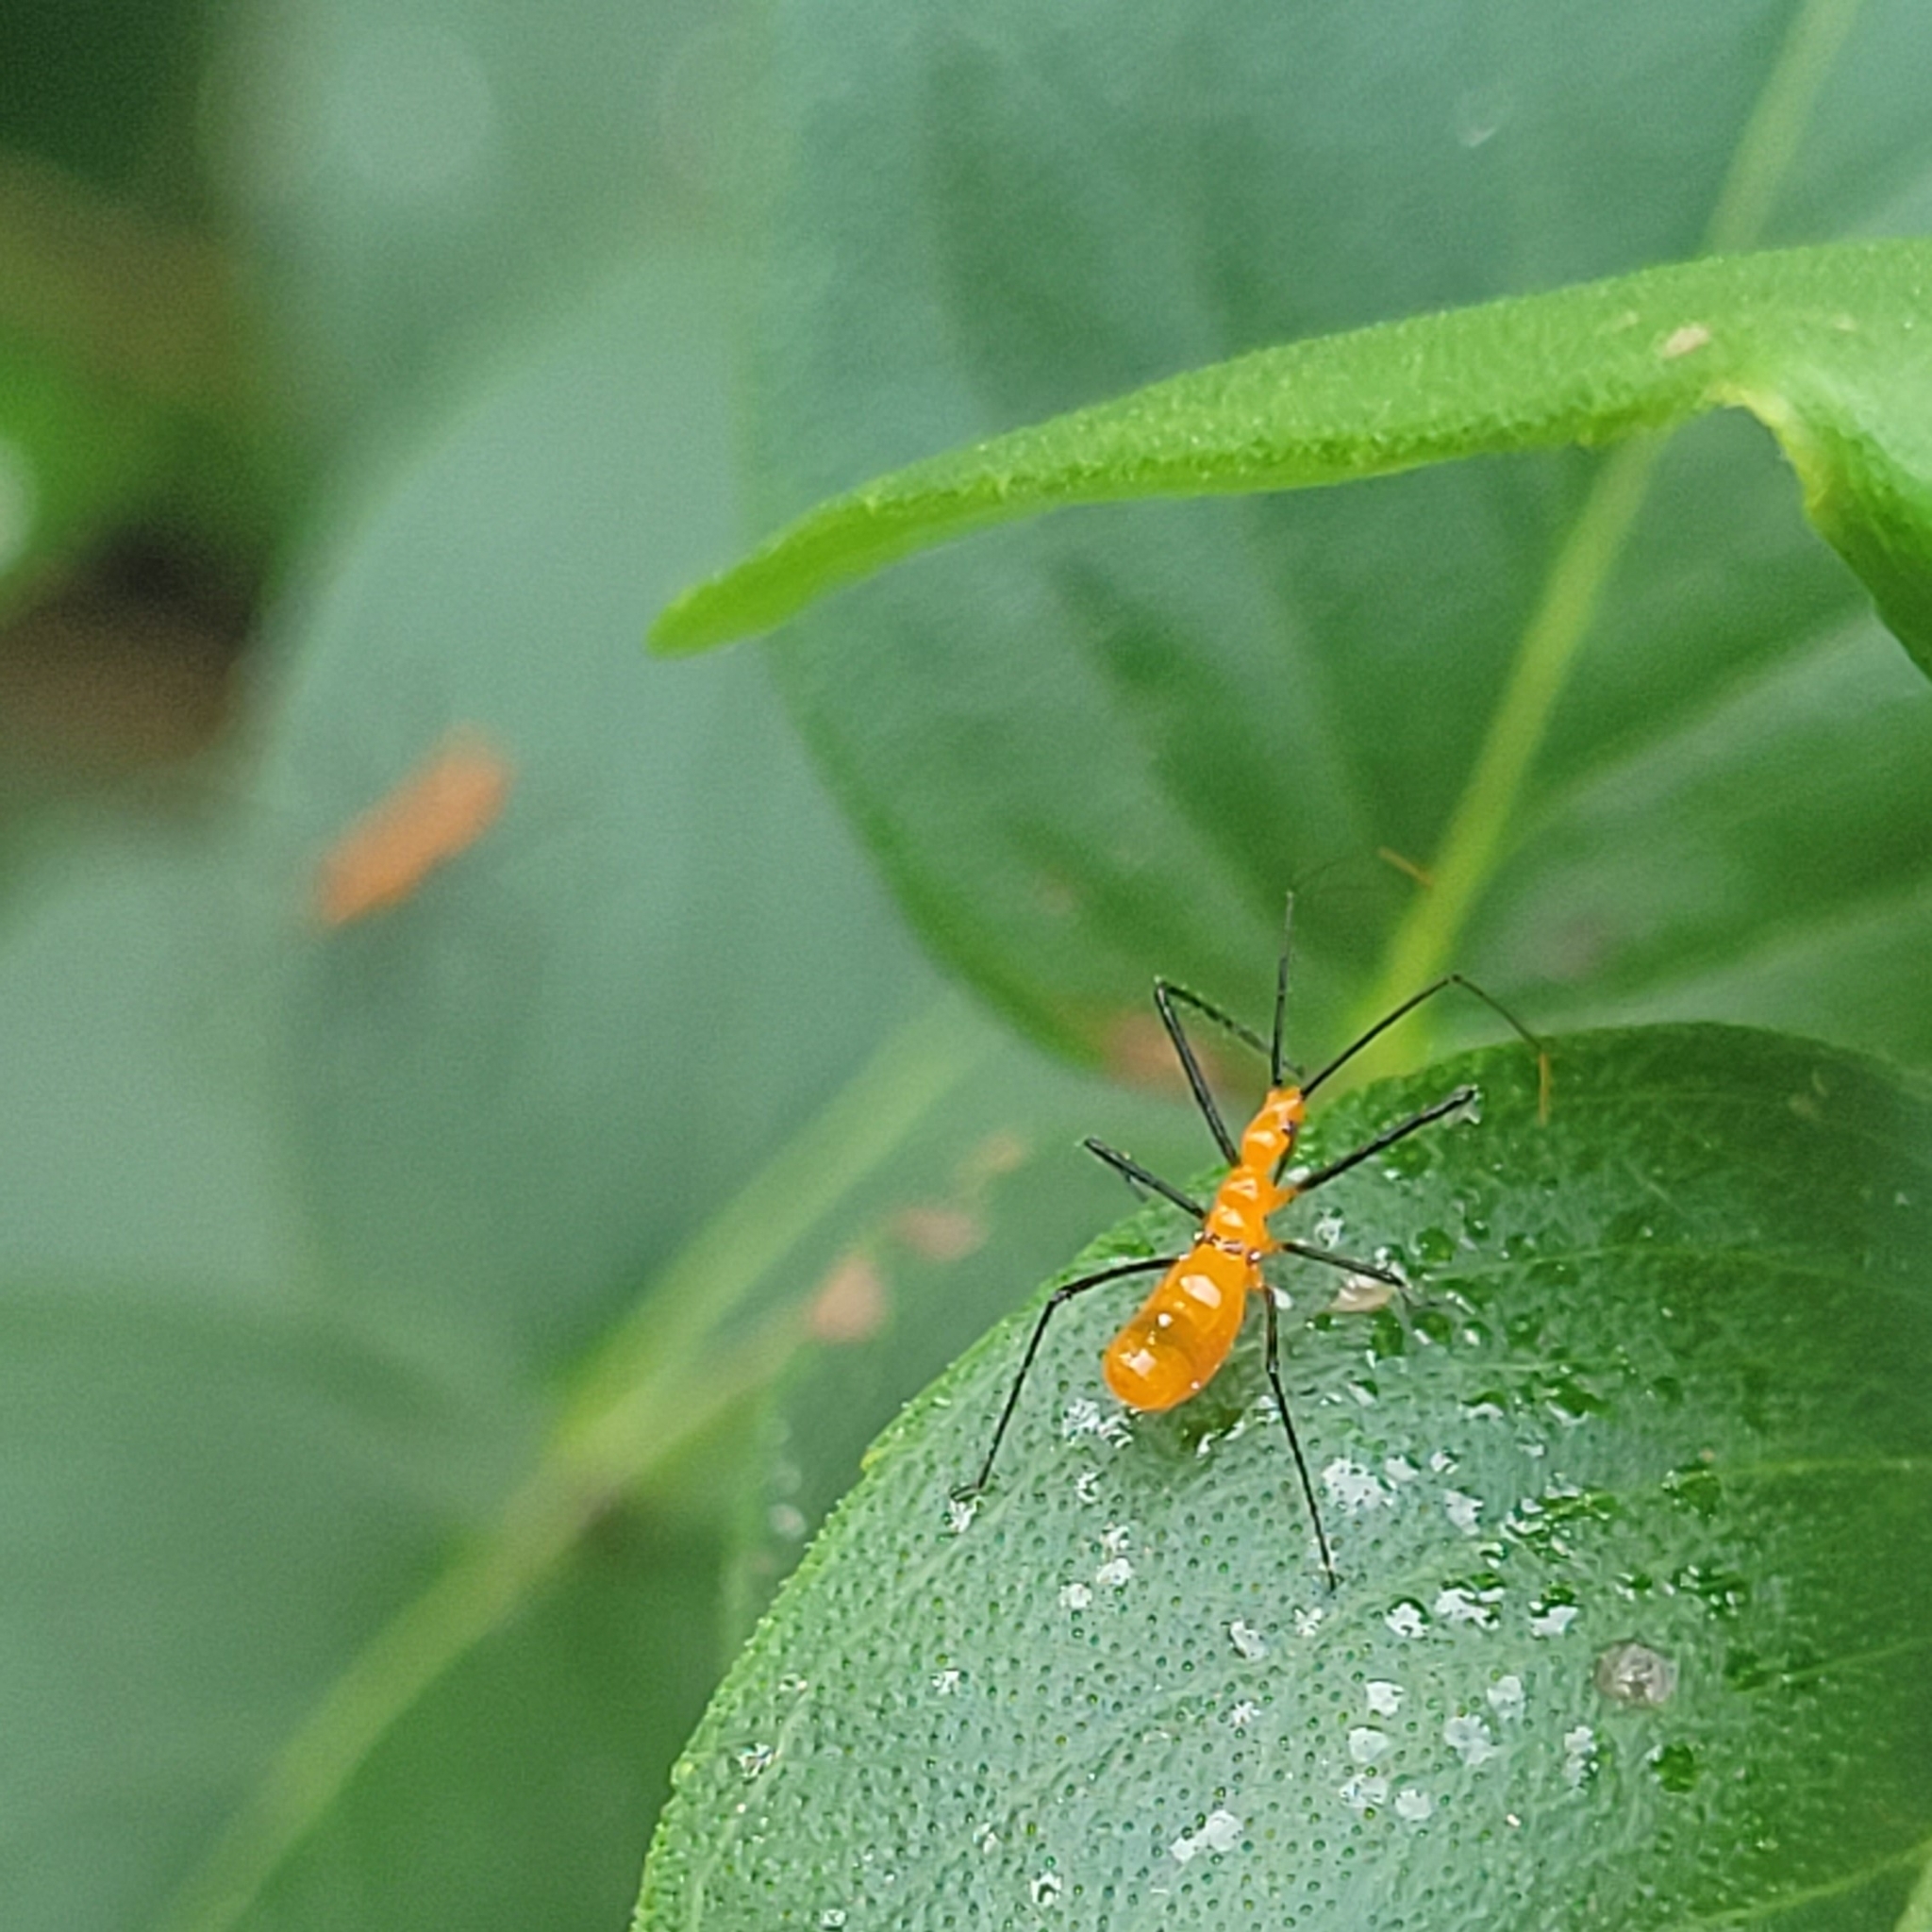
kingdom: Animalia
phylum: Arthropoda
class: Insecta
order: Hemiptera
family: Reduviidae
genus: Zelus
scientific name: Zelus longipes
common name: Milkweed assassin bug
